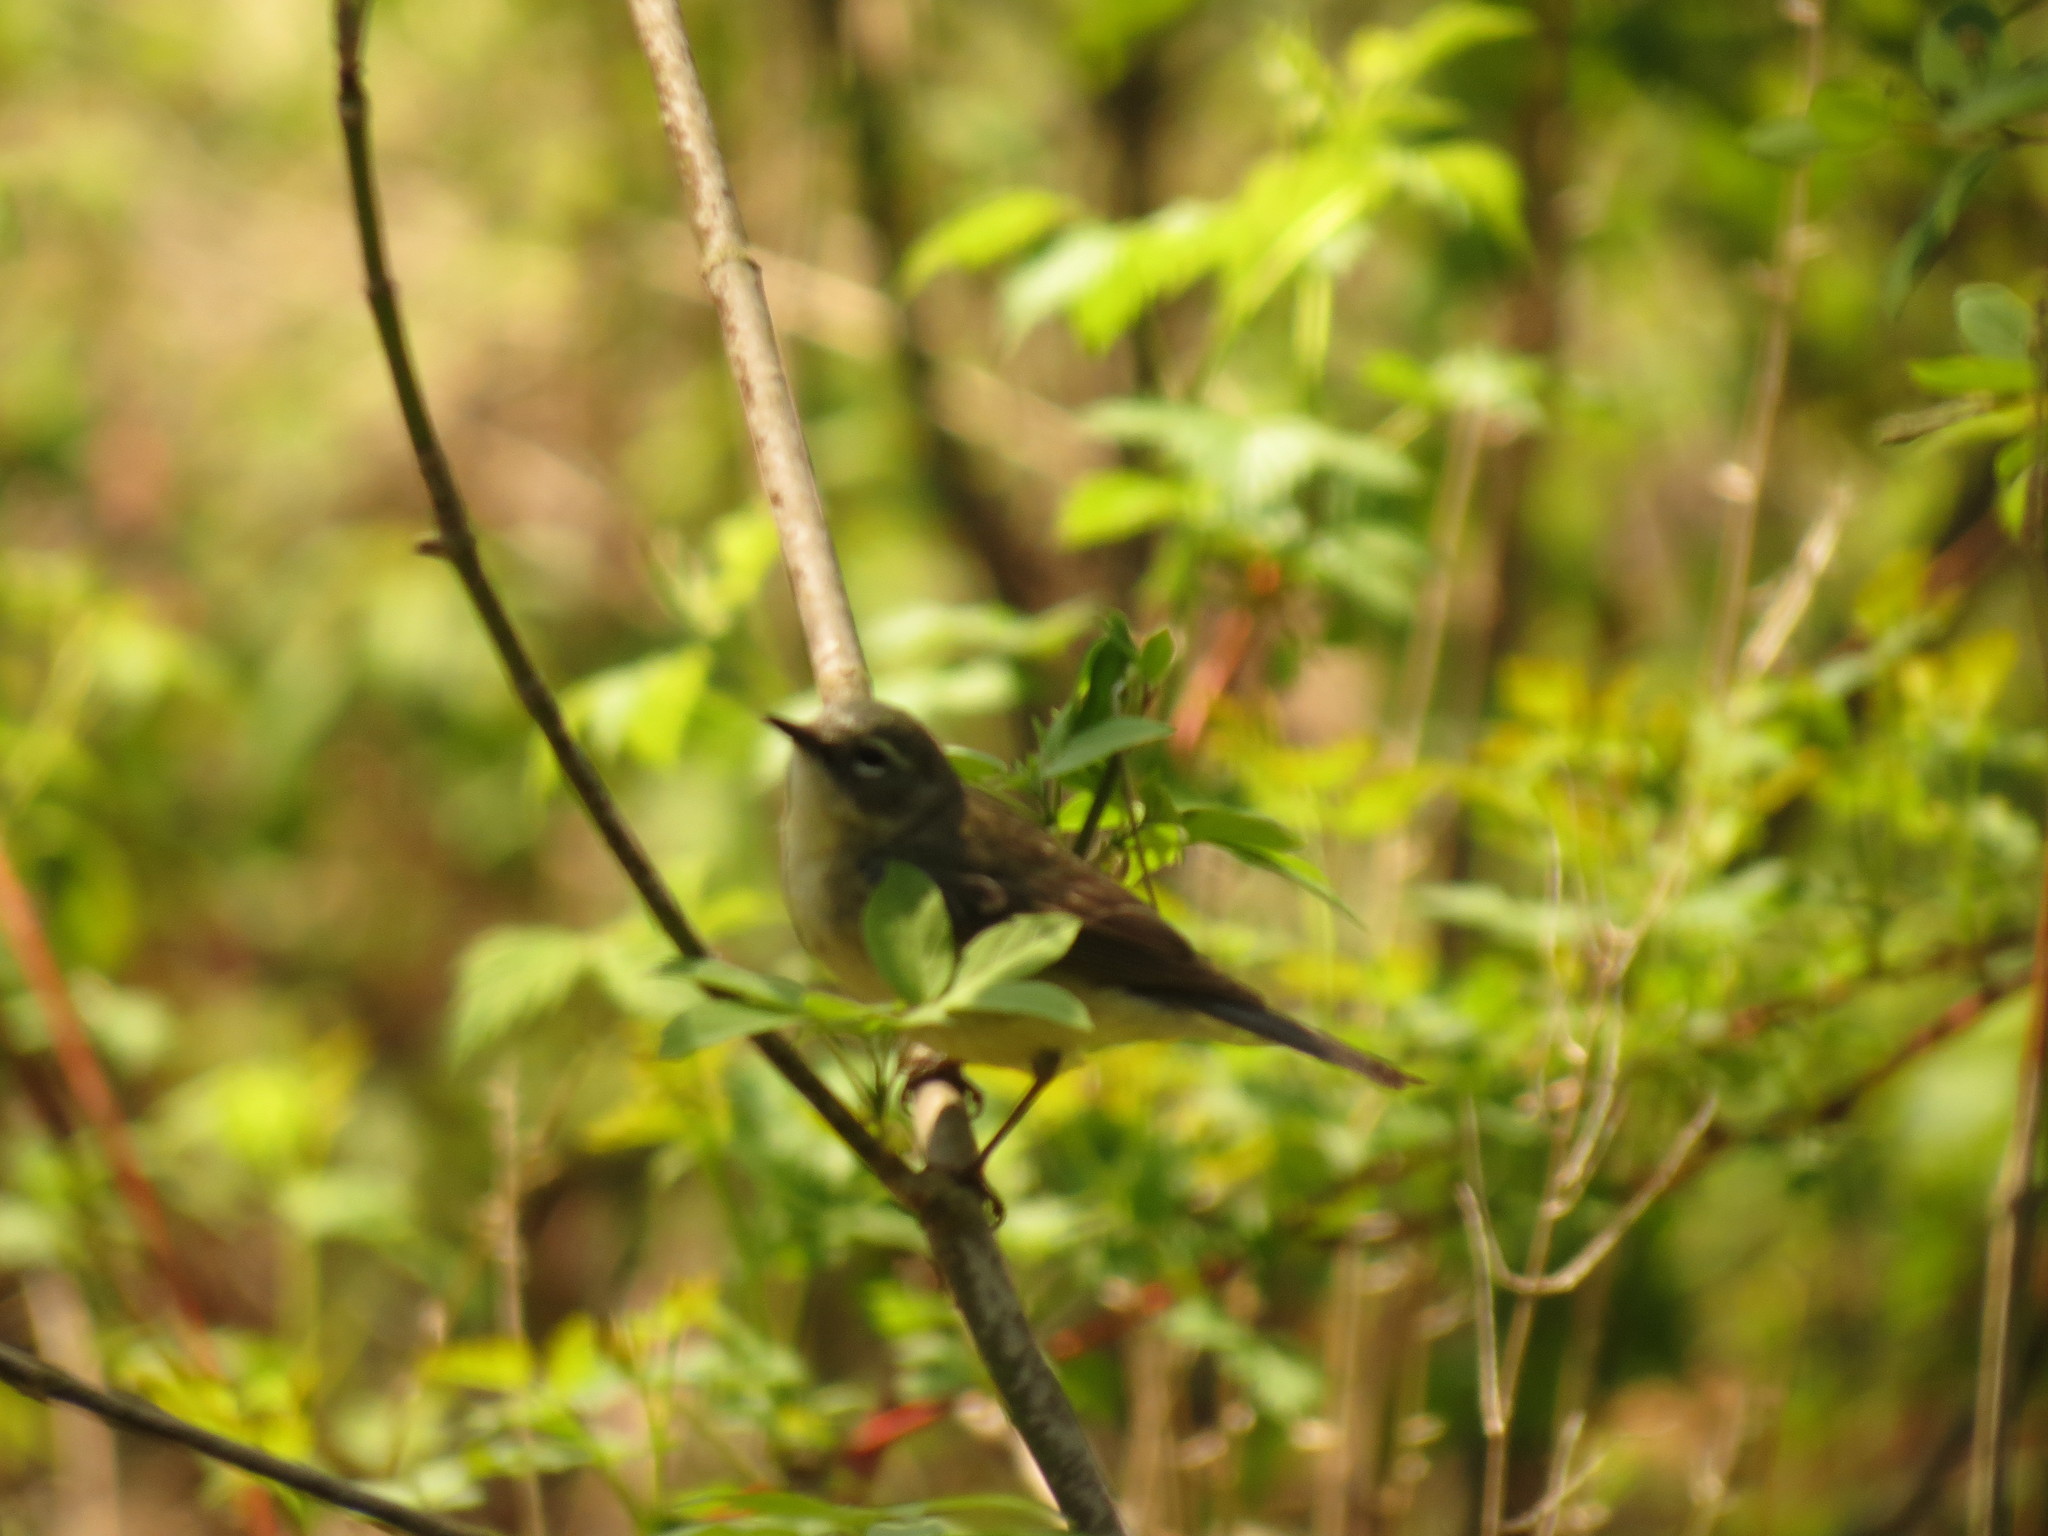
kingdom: Animalia
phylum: Chordata
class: Aves
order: Passeriformes
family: Parulidae
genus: Setophaga
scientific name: Setophaga caerulescens
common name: Black-throated blue warbler
